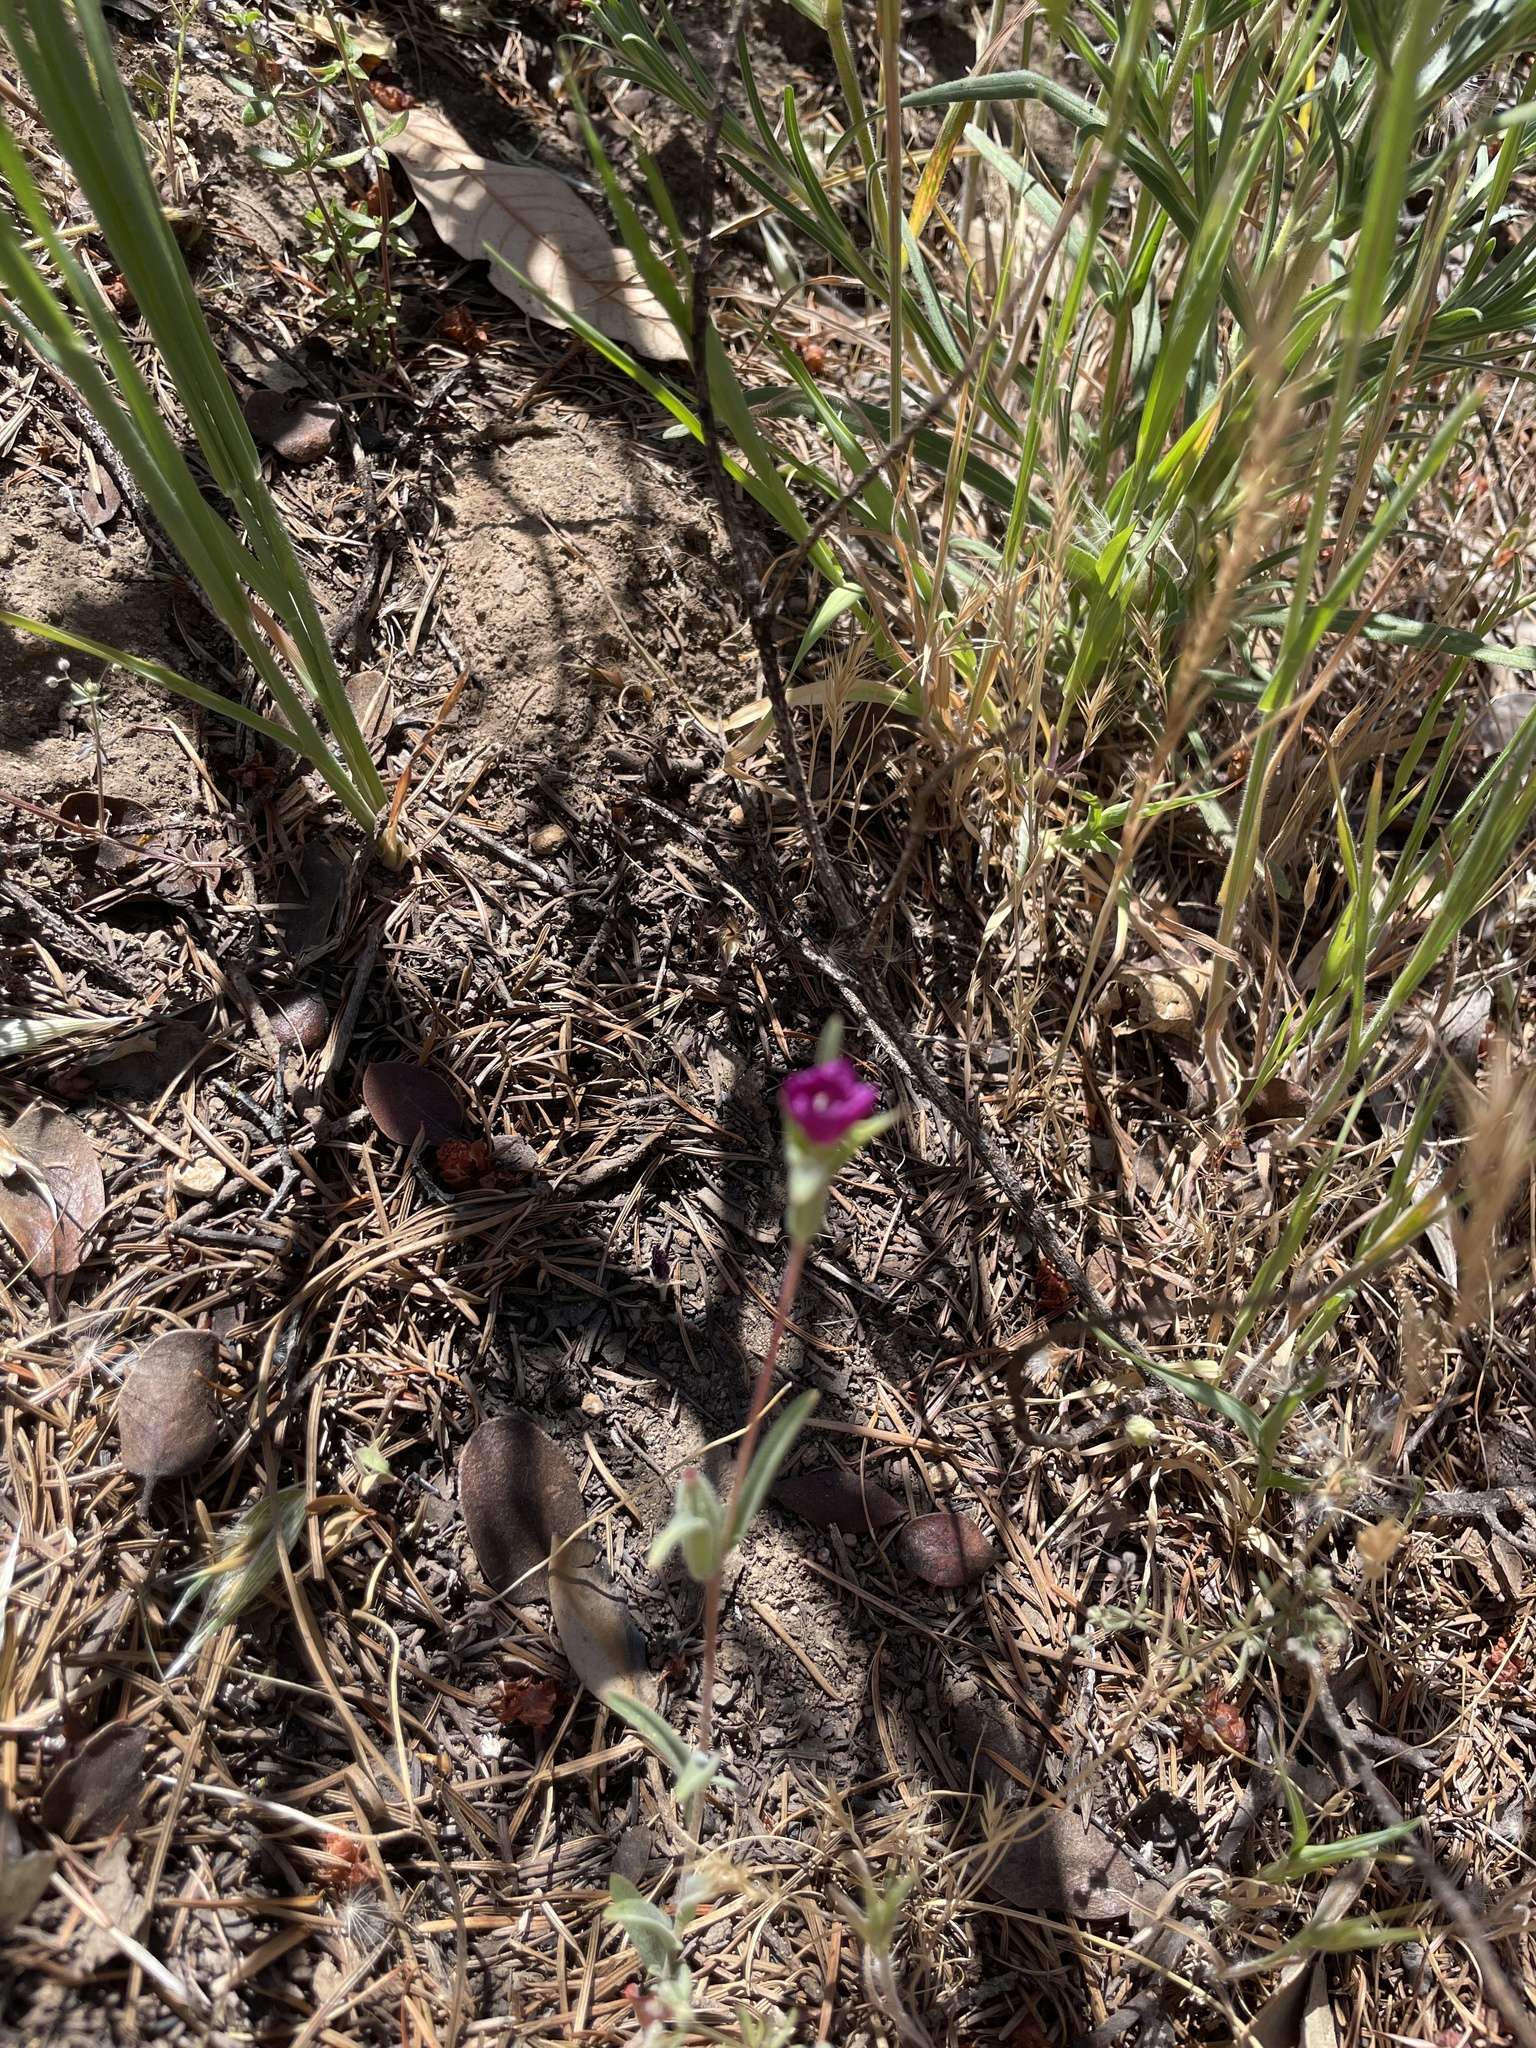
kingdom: Plantae
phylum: Tracheophyta
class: Magnoliopsida
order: Caryophyllales
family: Montiaceae
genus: Calandrinia
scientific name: Calandrinia menziesii
